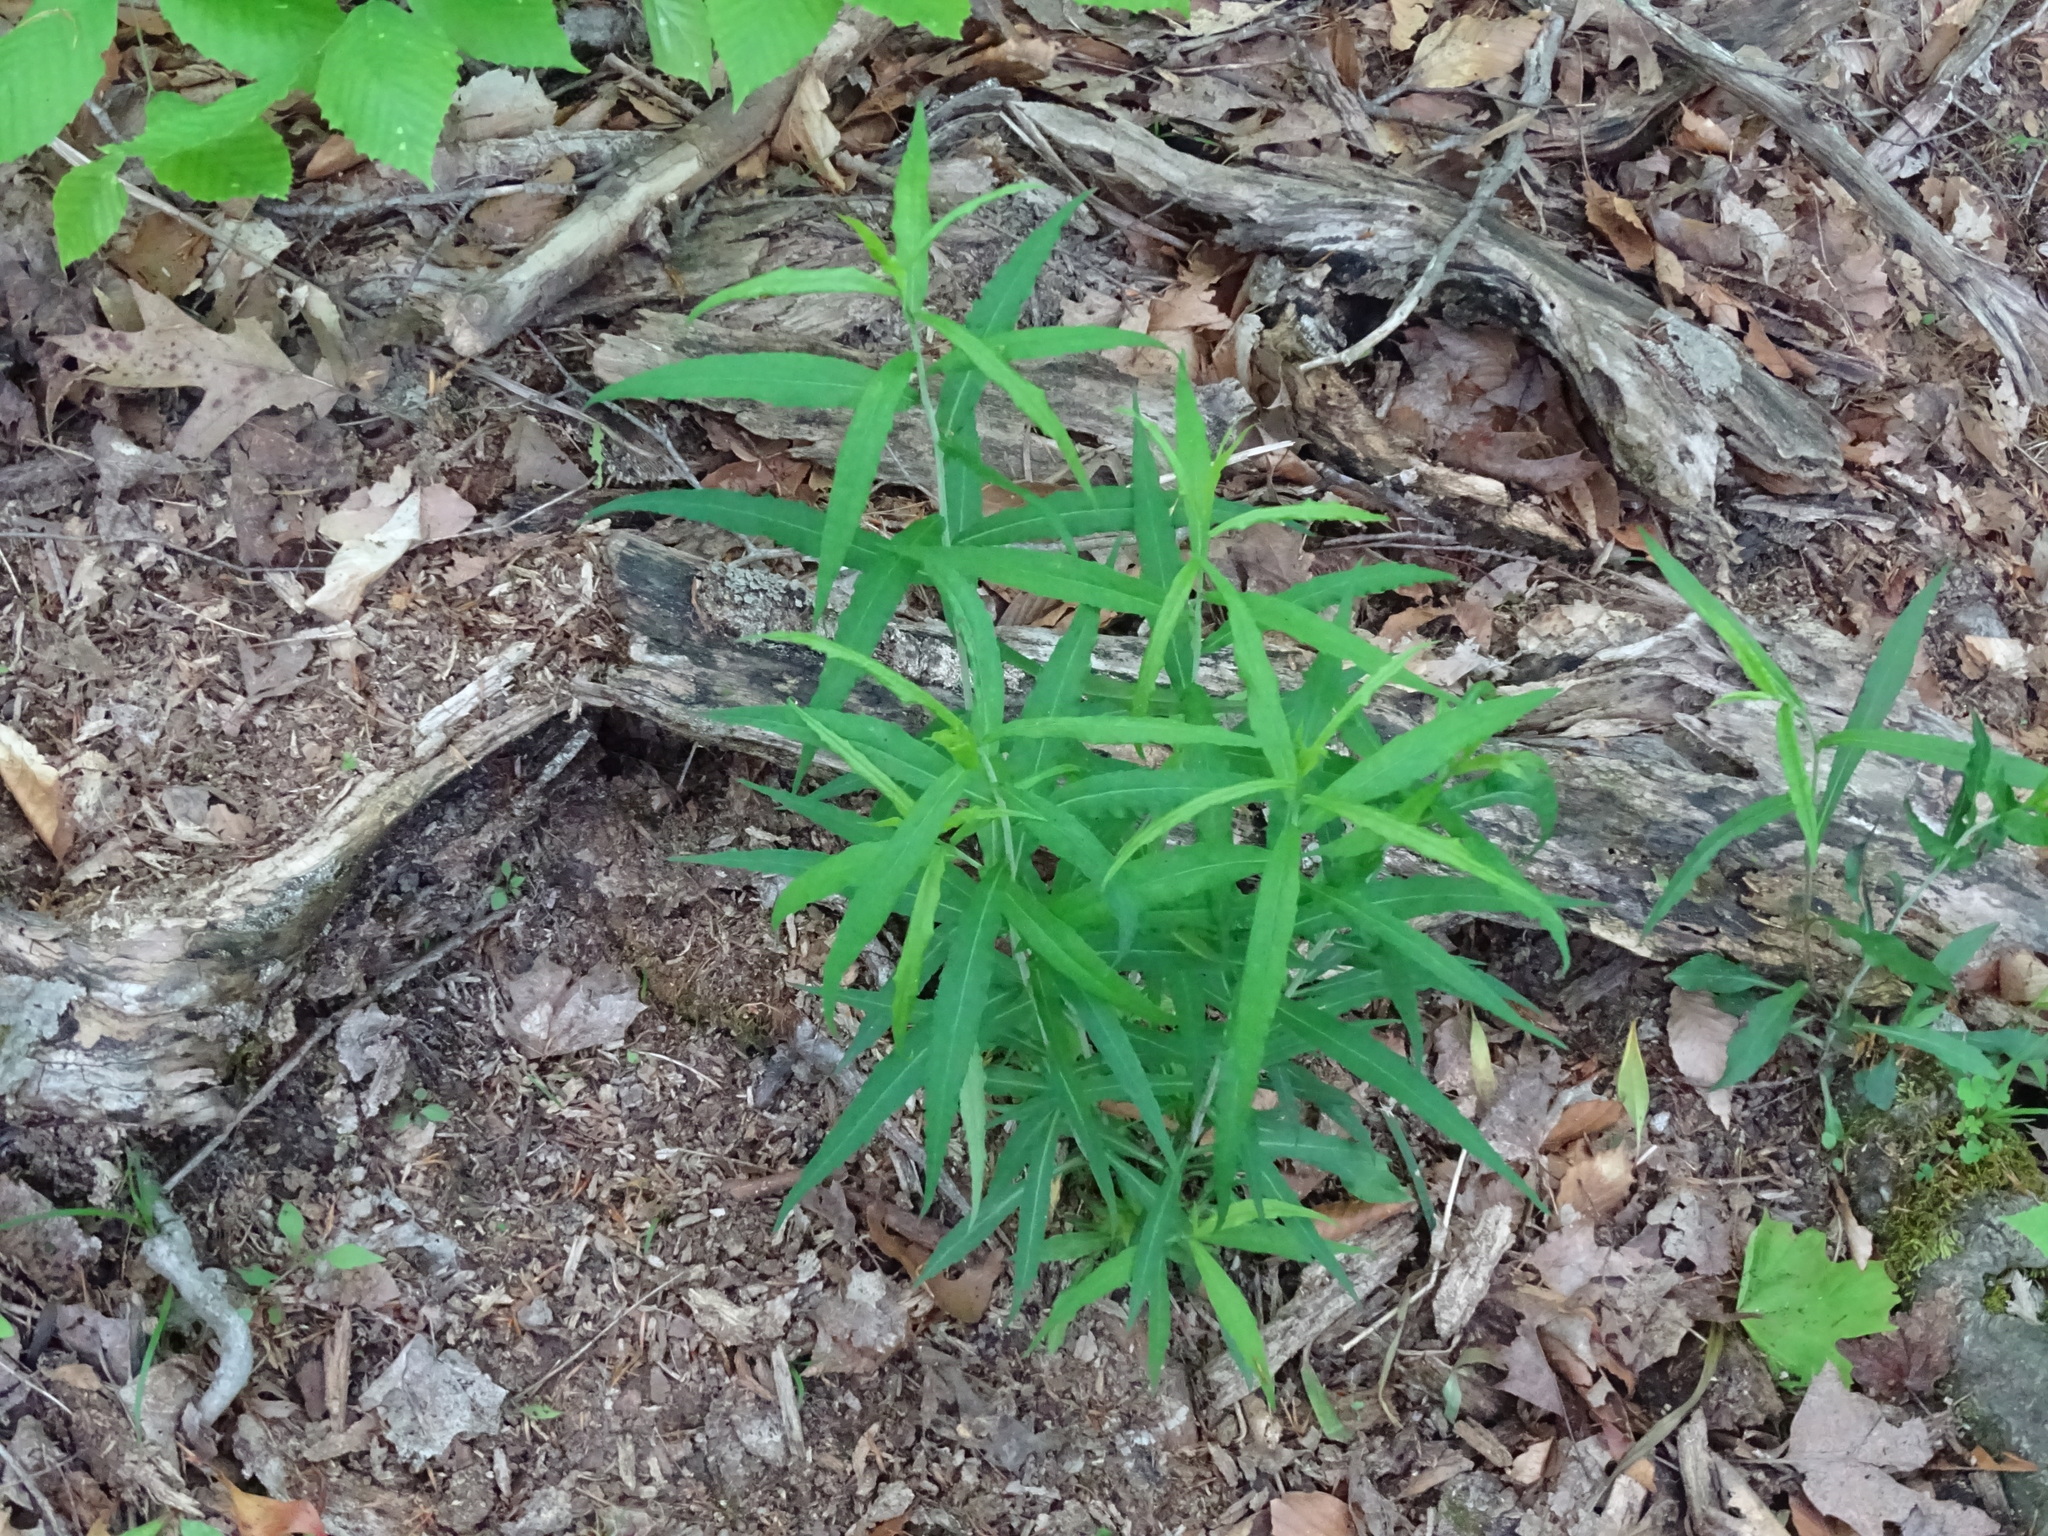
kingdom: Plantae
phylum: Tracheophyta
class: Magnoliopsida
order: Asterales
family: Asteraceae
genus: Solidago
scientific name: Solidago caesia
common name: Woodland goldenrod
